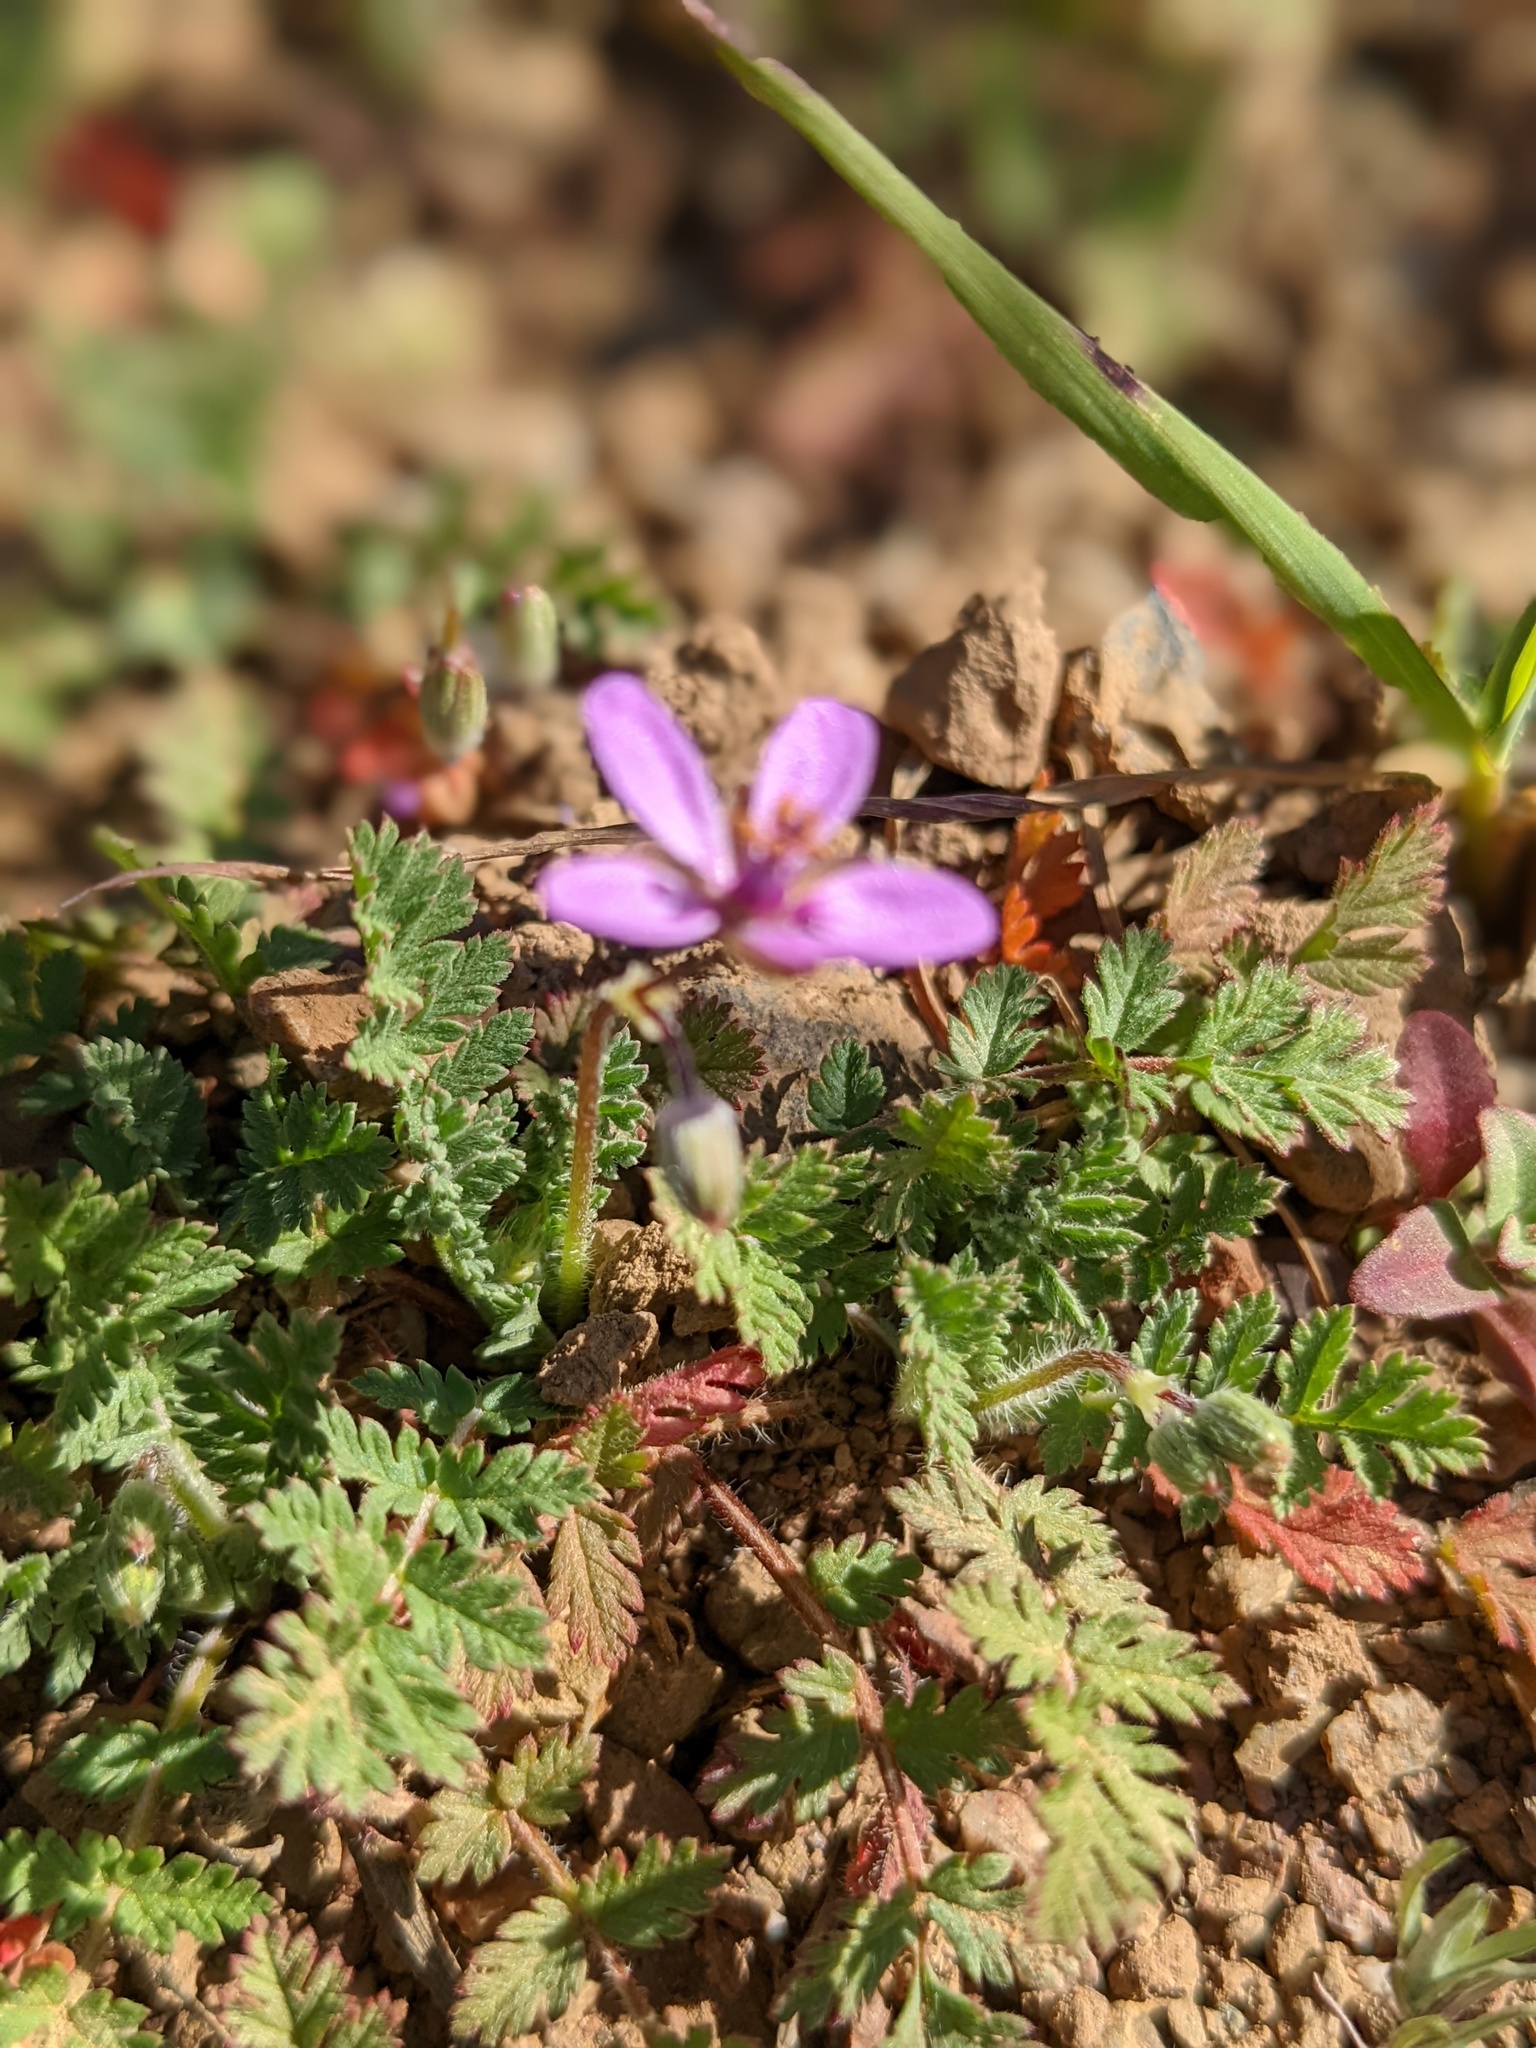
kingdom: Plantae
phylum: Tracheophyta
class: Magnoliopsida
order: Geraniales
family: Geraniaceae
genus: Erodium
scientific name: Erodium cicutarium
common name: Common stork's-bill
